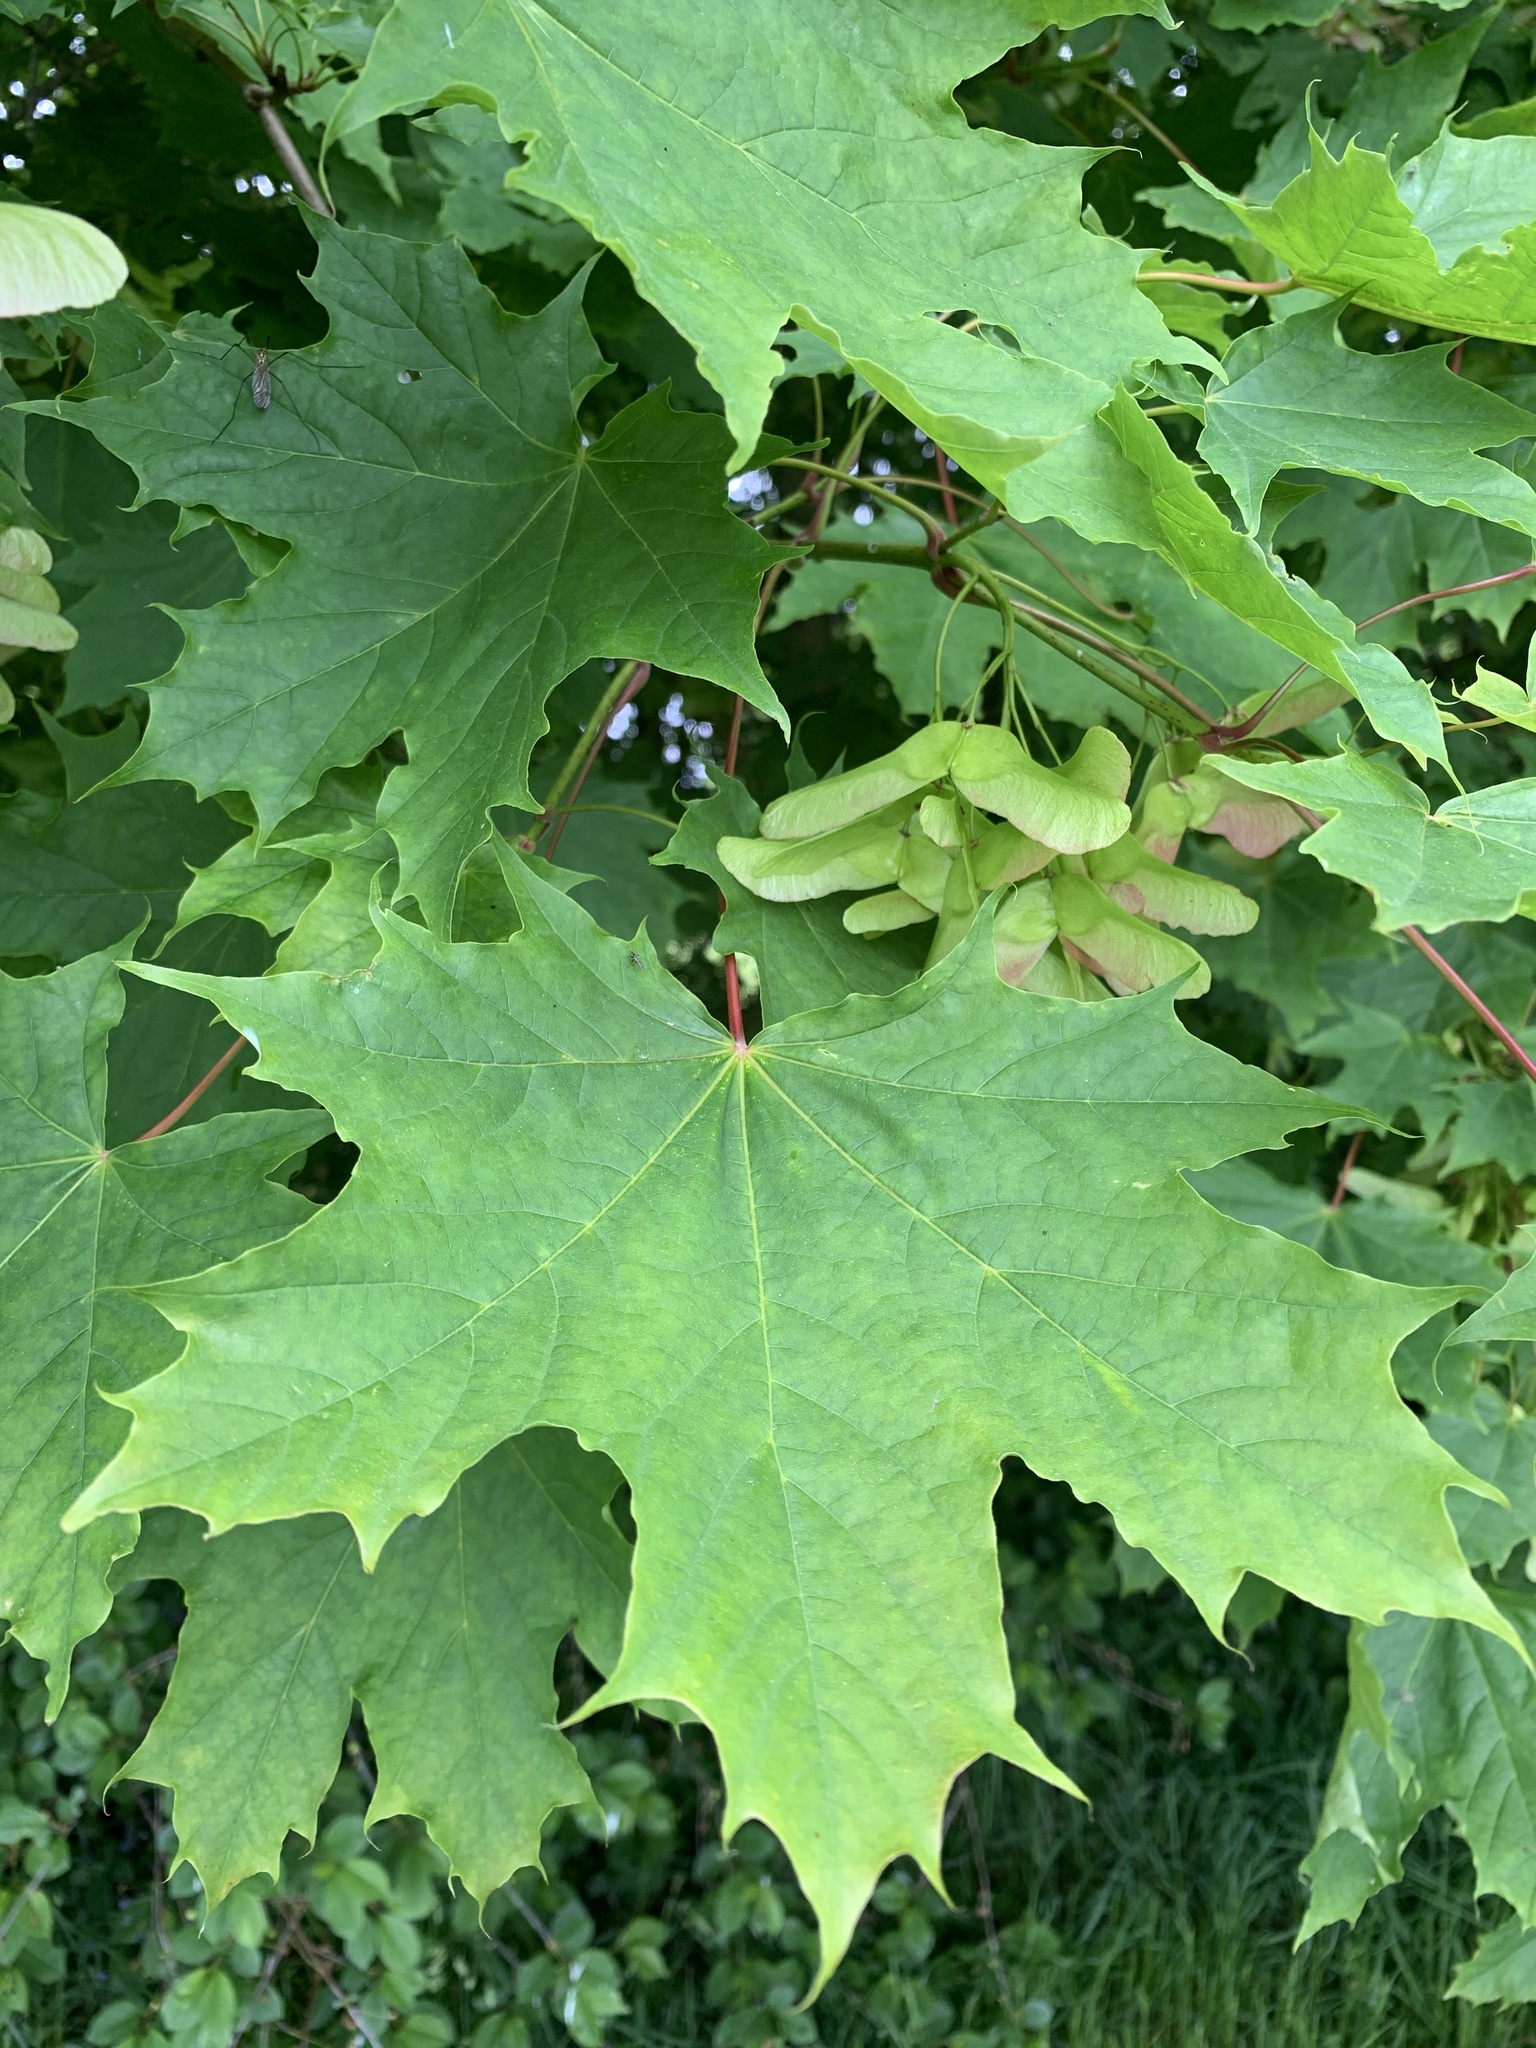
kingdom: Plantae
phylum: Tracheophyta
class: Magnoliopsida
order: Sapindales
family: Sapindaceae
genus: Acer
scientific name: Acer platanoides
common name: Norway maple
